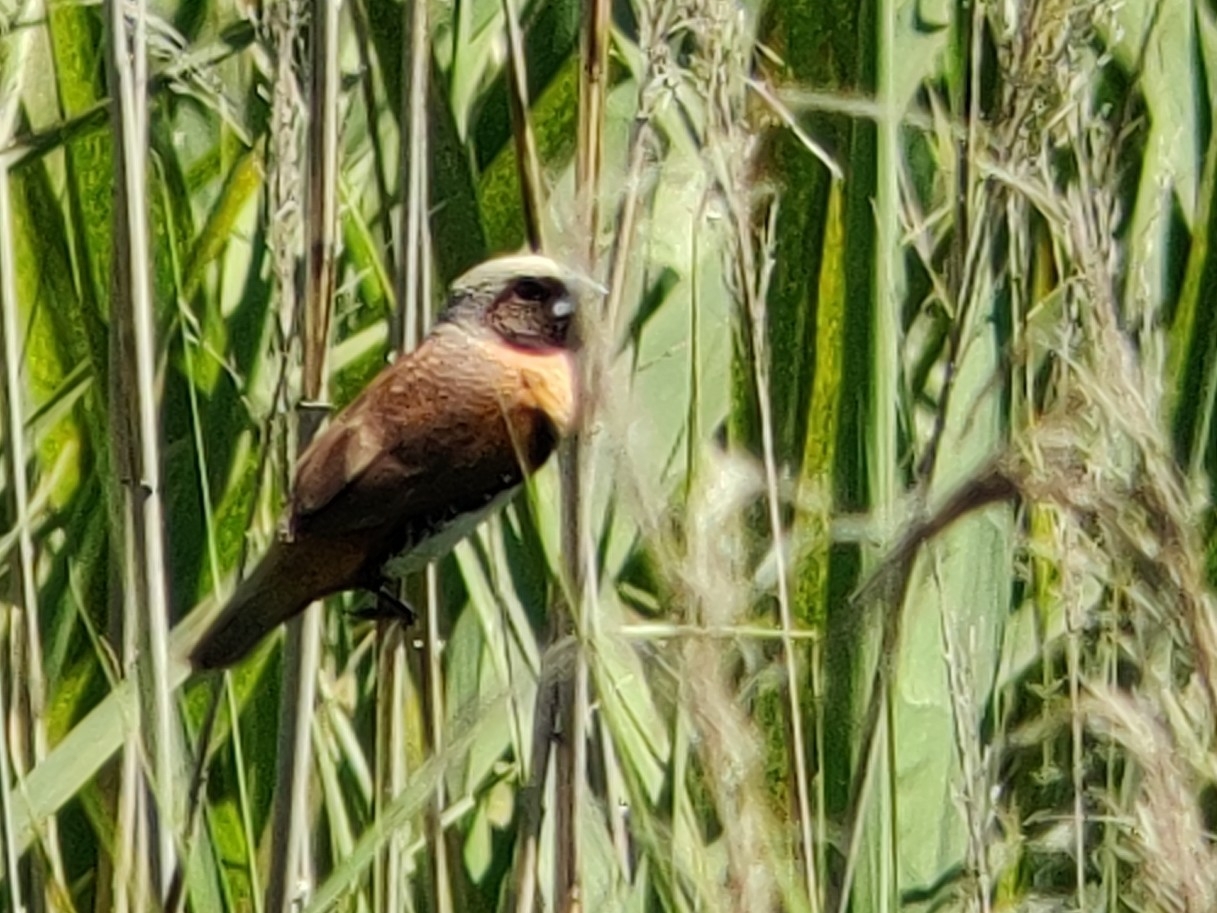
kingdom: Animalia
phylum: Chordata
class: Aves
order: Passeriformes
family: Estrildidae
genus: Lonchura
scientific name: Lonchura castaneothorax
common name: Chestnut-breasted mannikin
